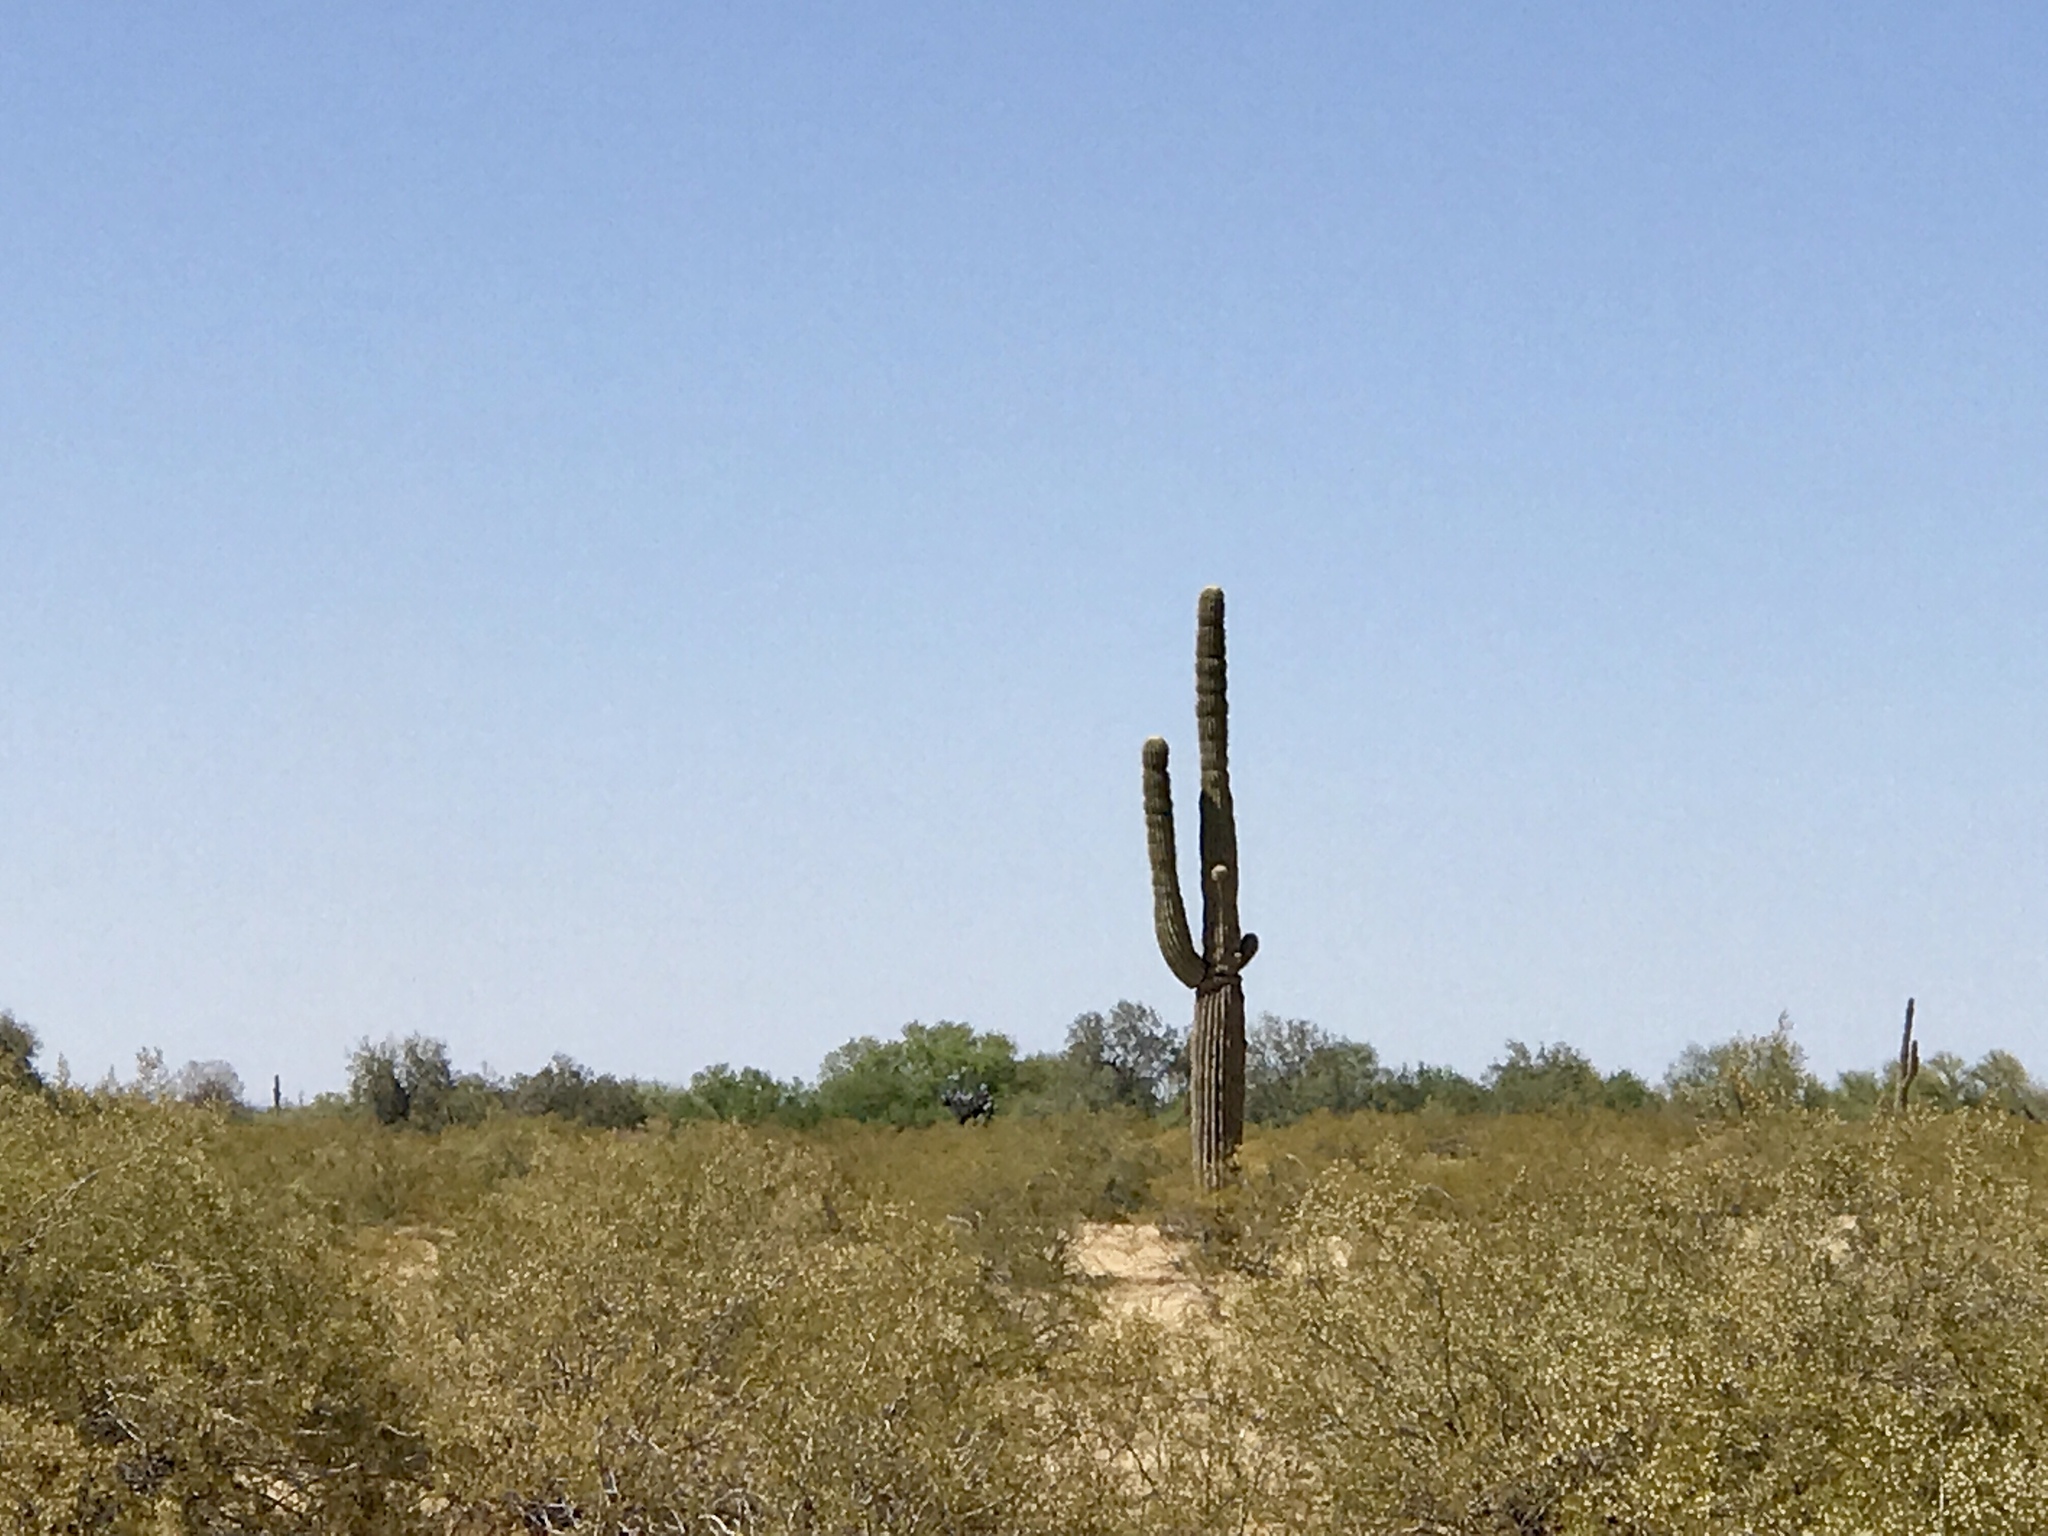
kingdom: Plantae
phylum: Tracheophyta
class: Magnoliopsida
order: Caryophyllales
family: Cactaceae
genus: Carnegiea
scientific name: Carnegiea gigantea
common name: Saguaro
